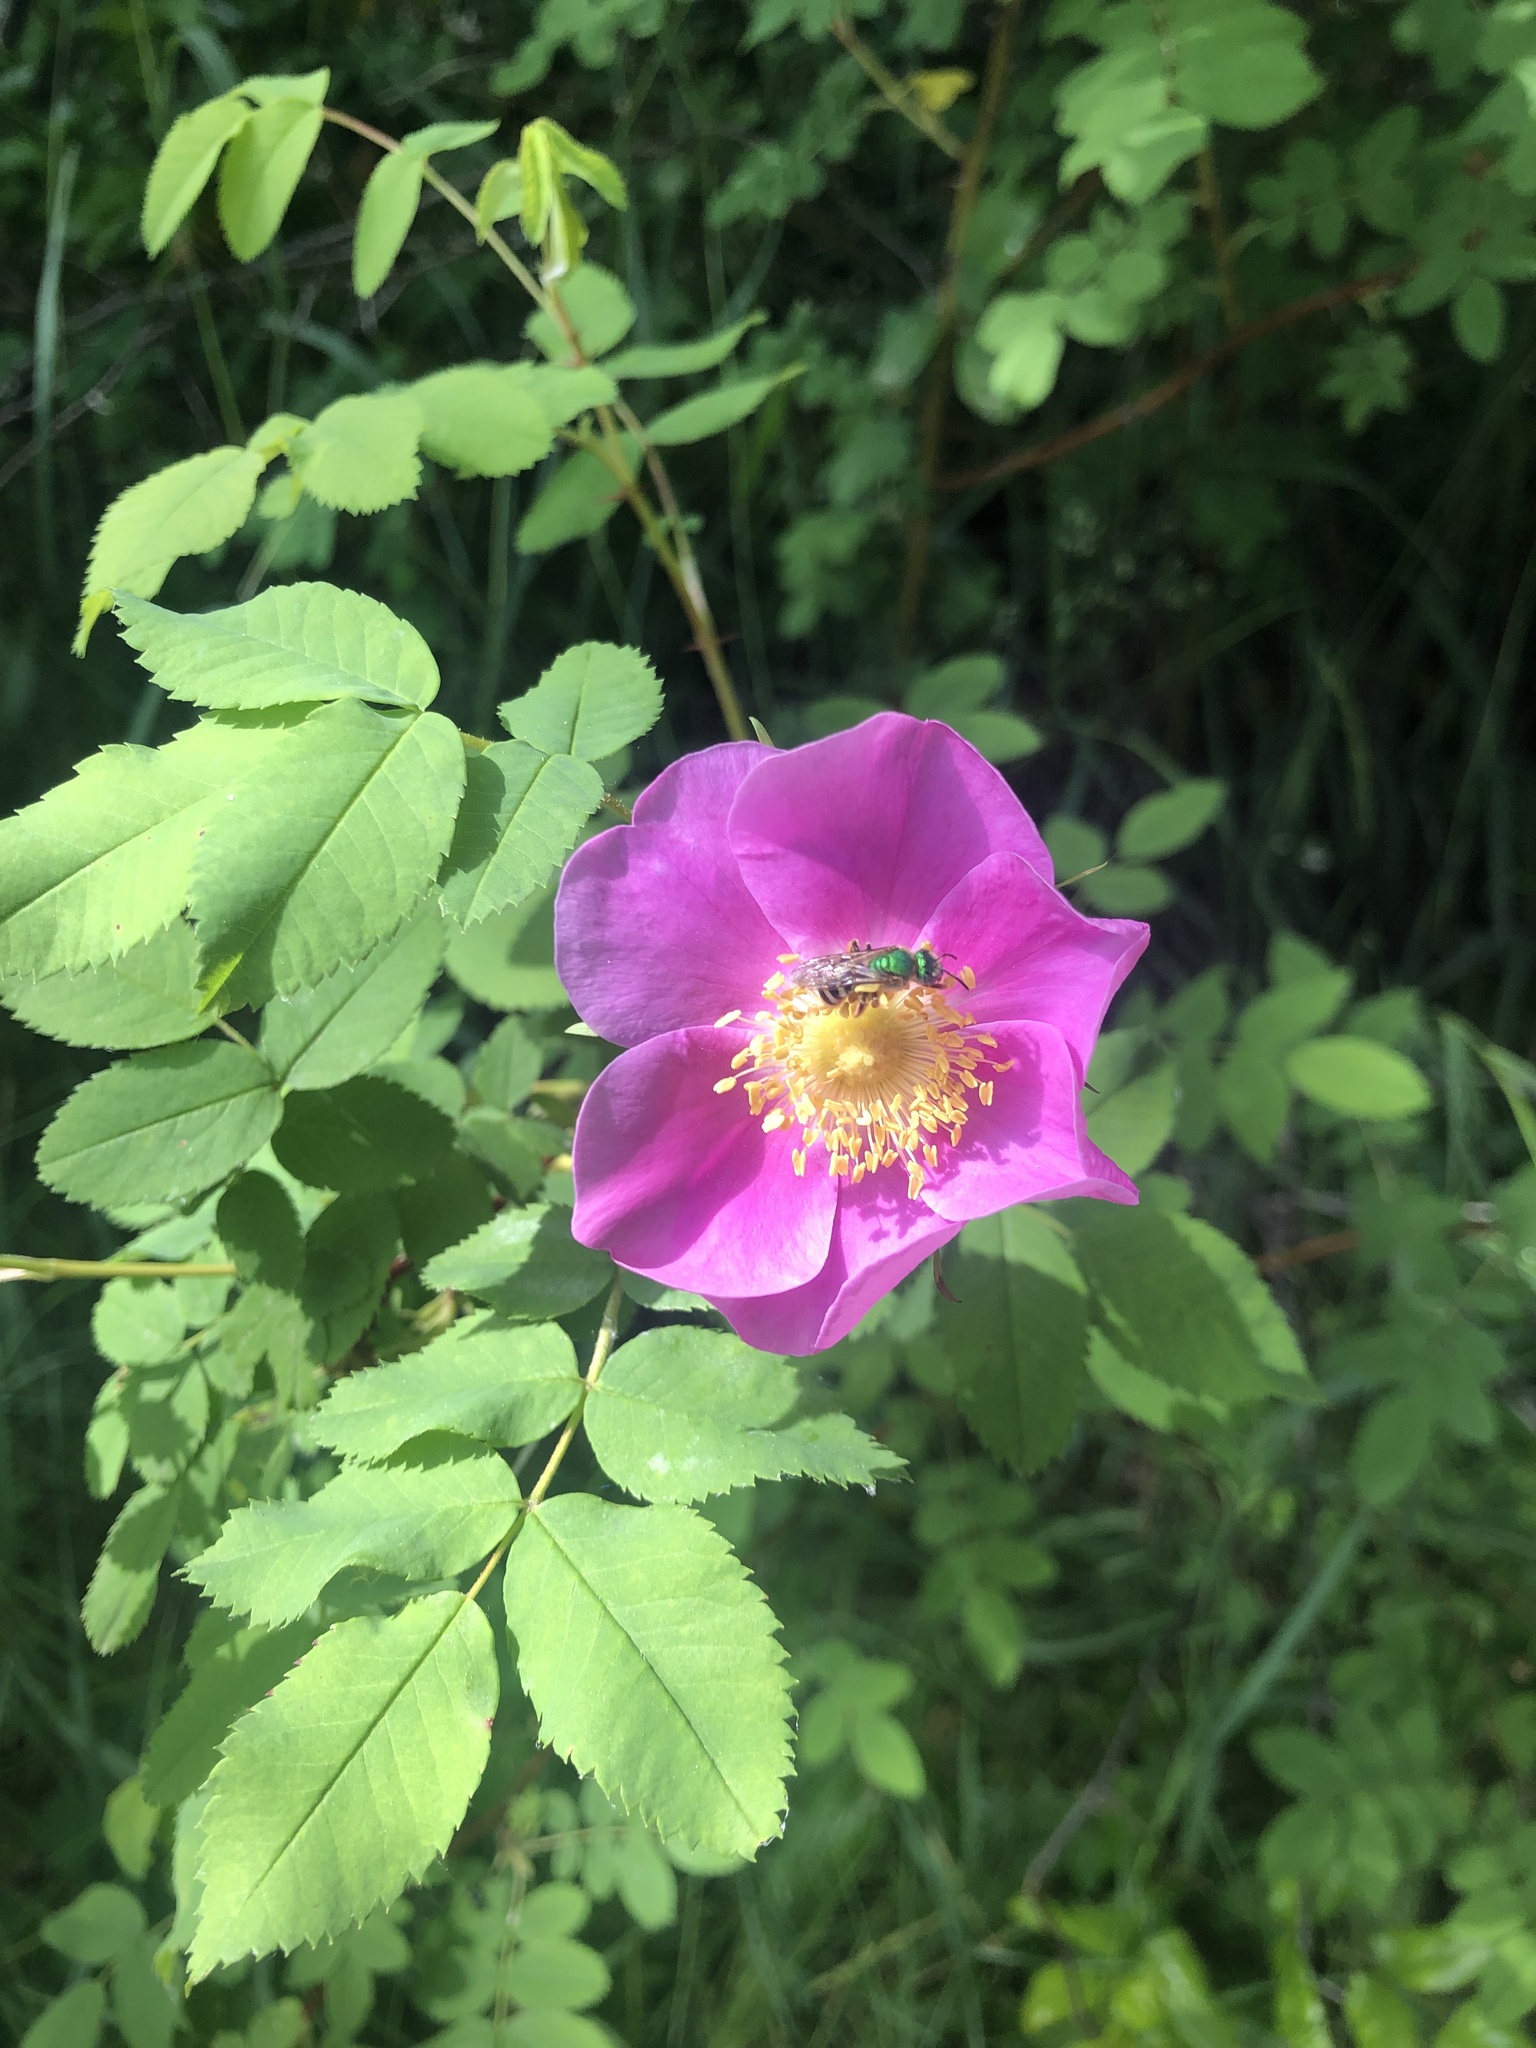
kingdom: Animalia
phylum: Arthropoda
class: Insecta
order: Hymenoptera
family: Halictidae
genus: Agapostemon
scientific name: Agapostemon virescens
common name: Bicolored striped sweat bee
